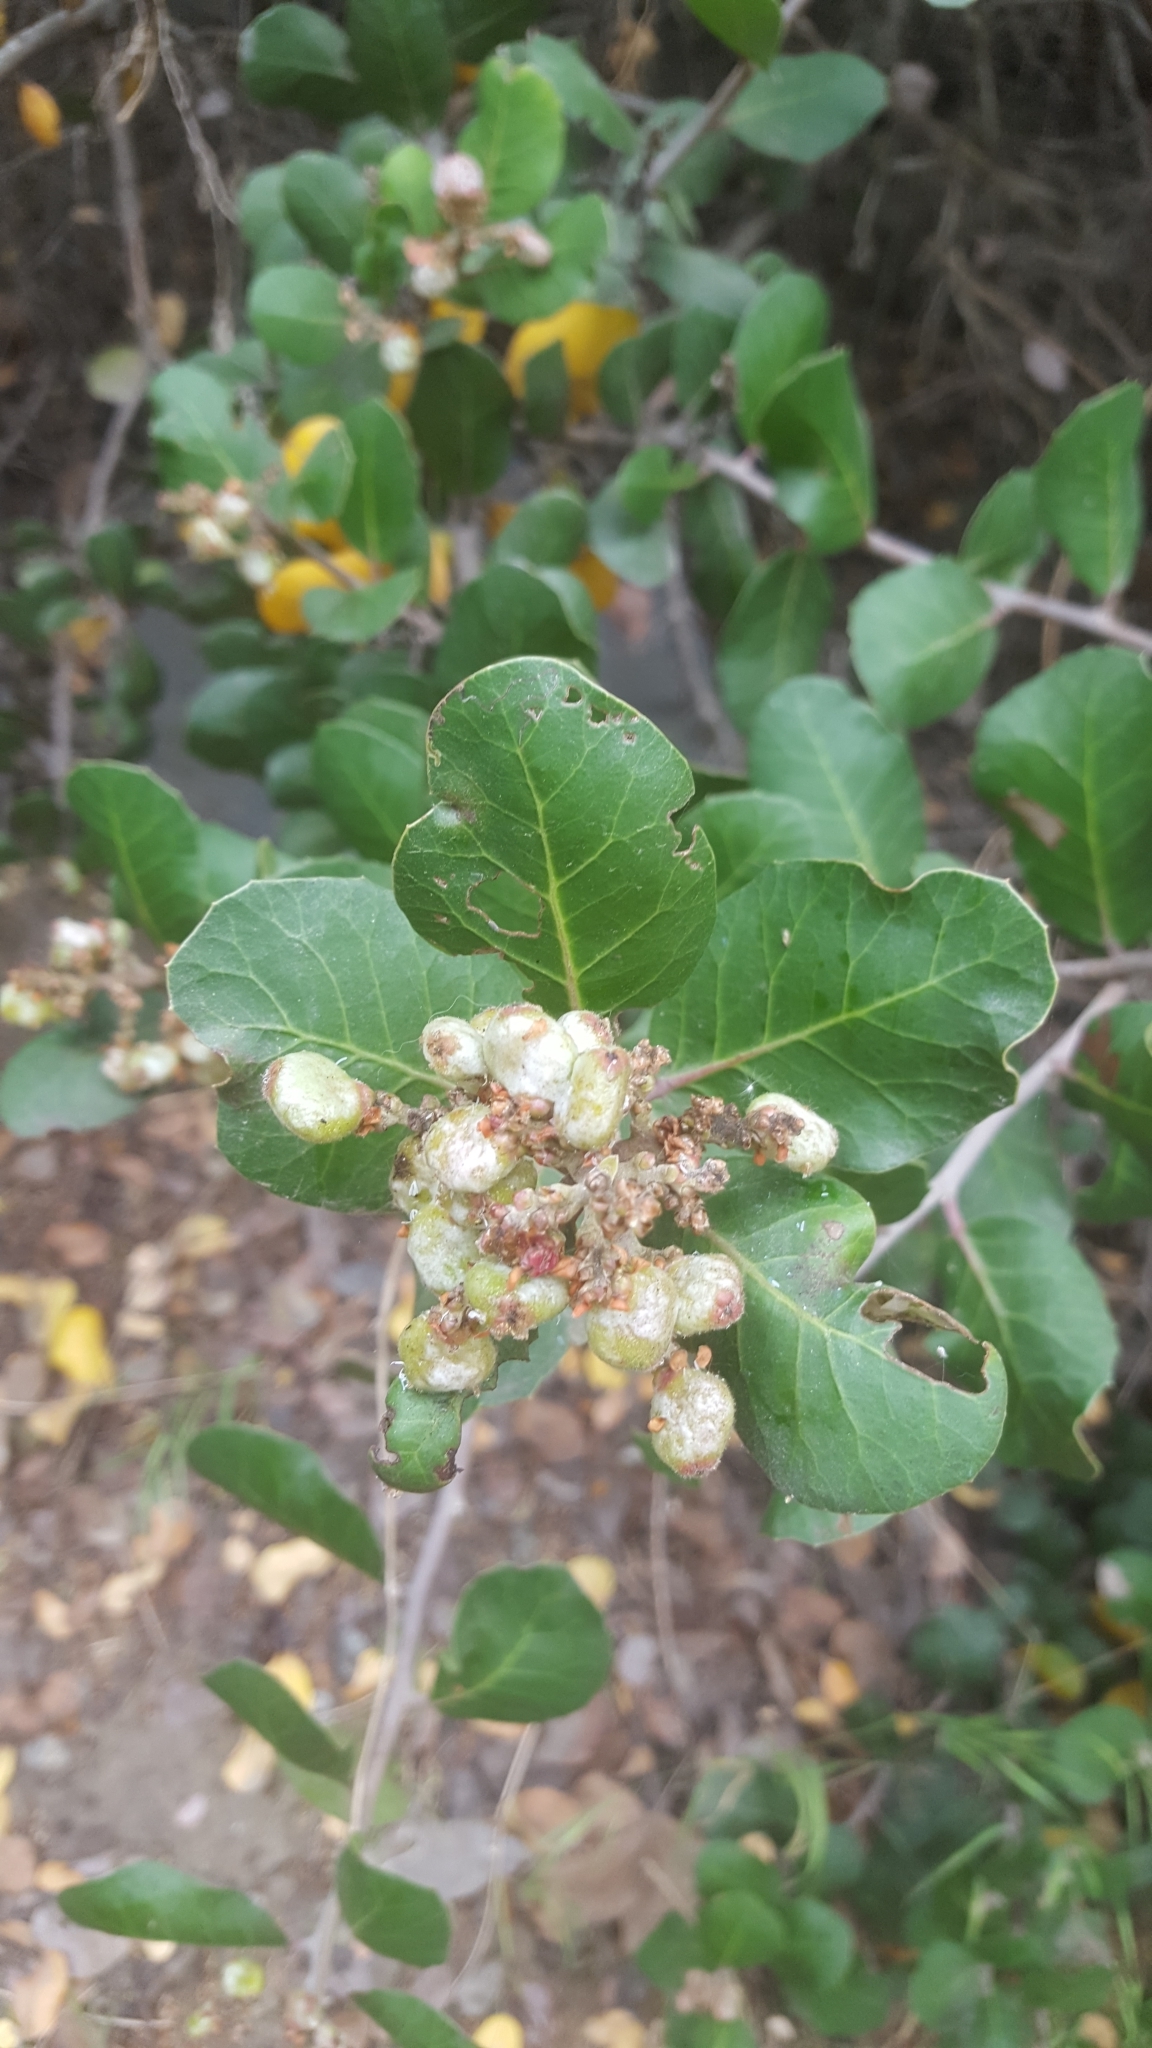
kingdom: Plantae
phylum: Tracheophyta
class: Magnoliopsida
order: Sapindales
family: Anacardiaceae
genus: Rhus
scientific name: Rhus integrifolia
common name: Lemonade sumac
